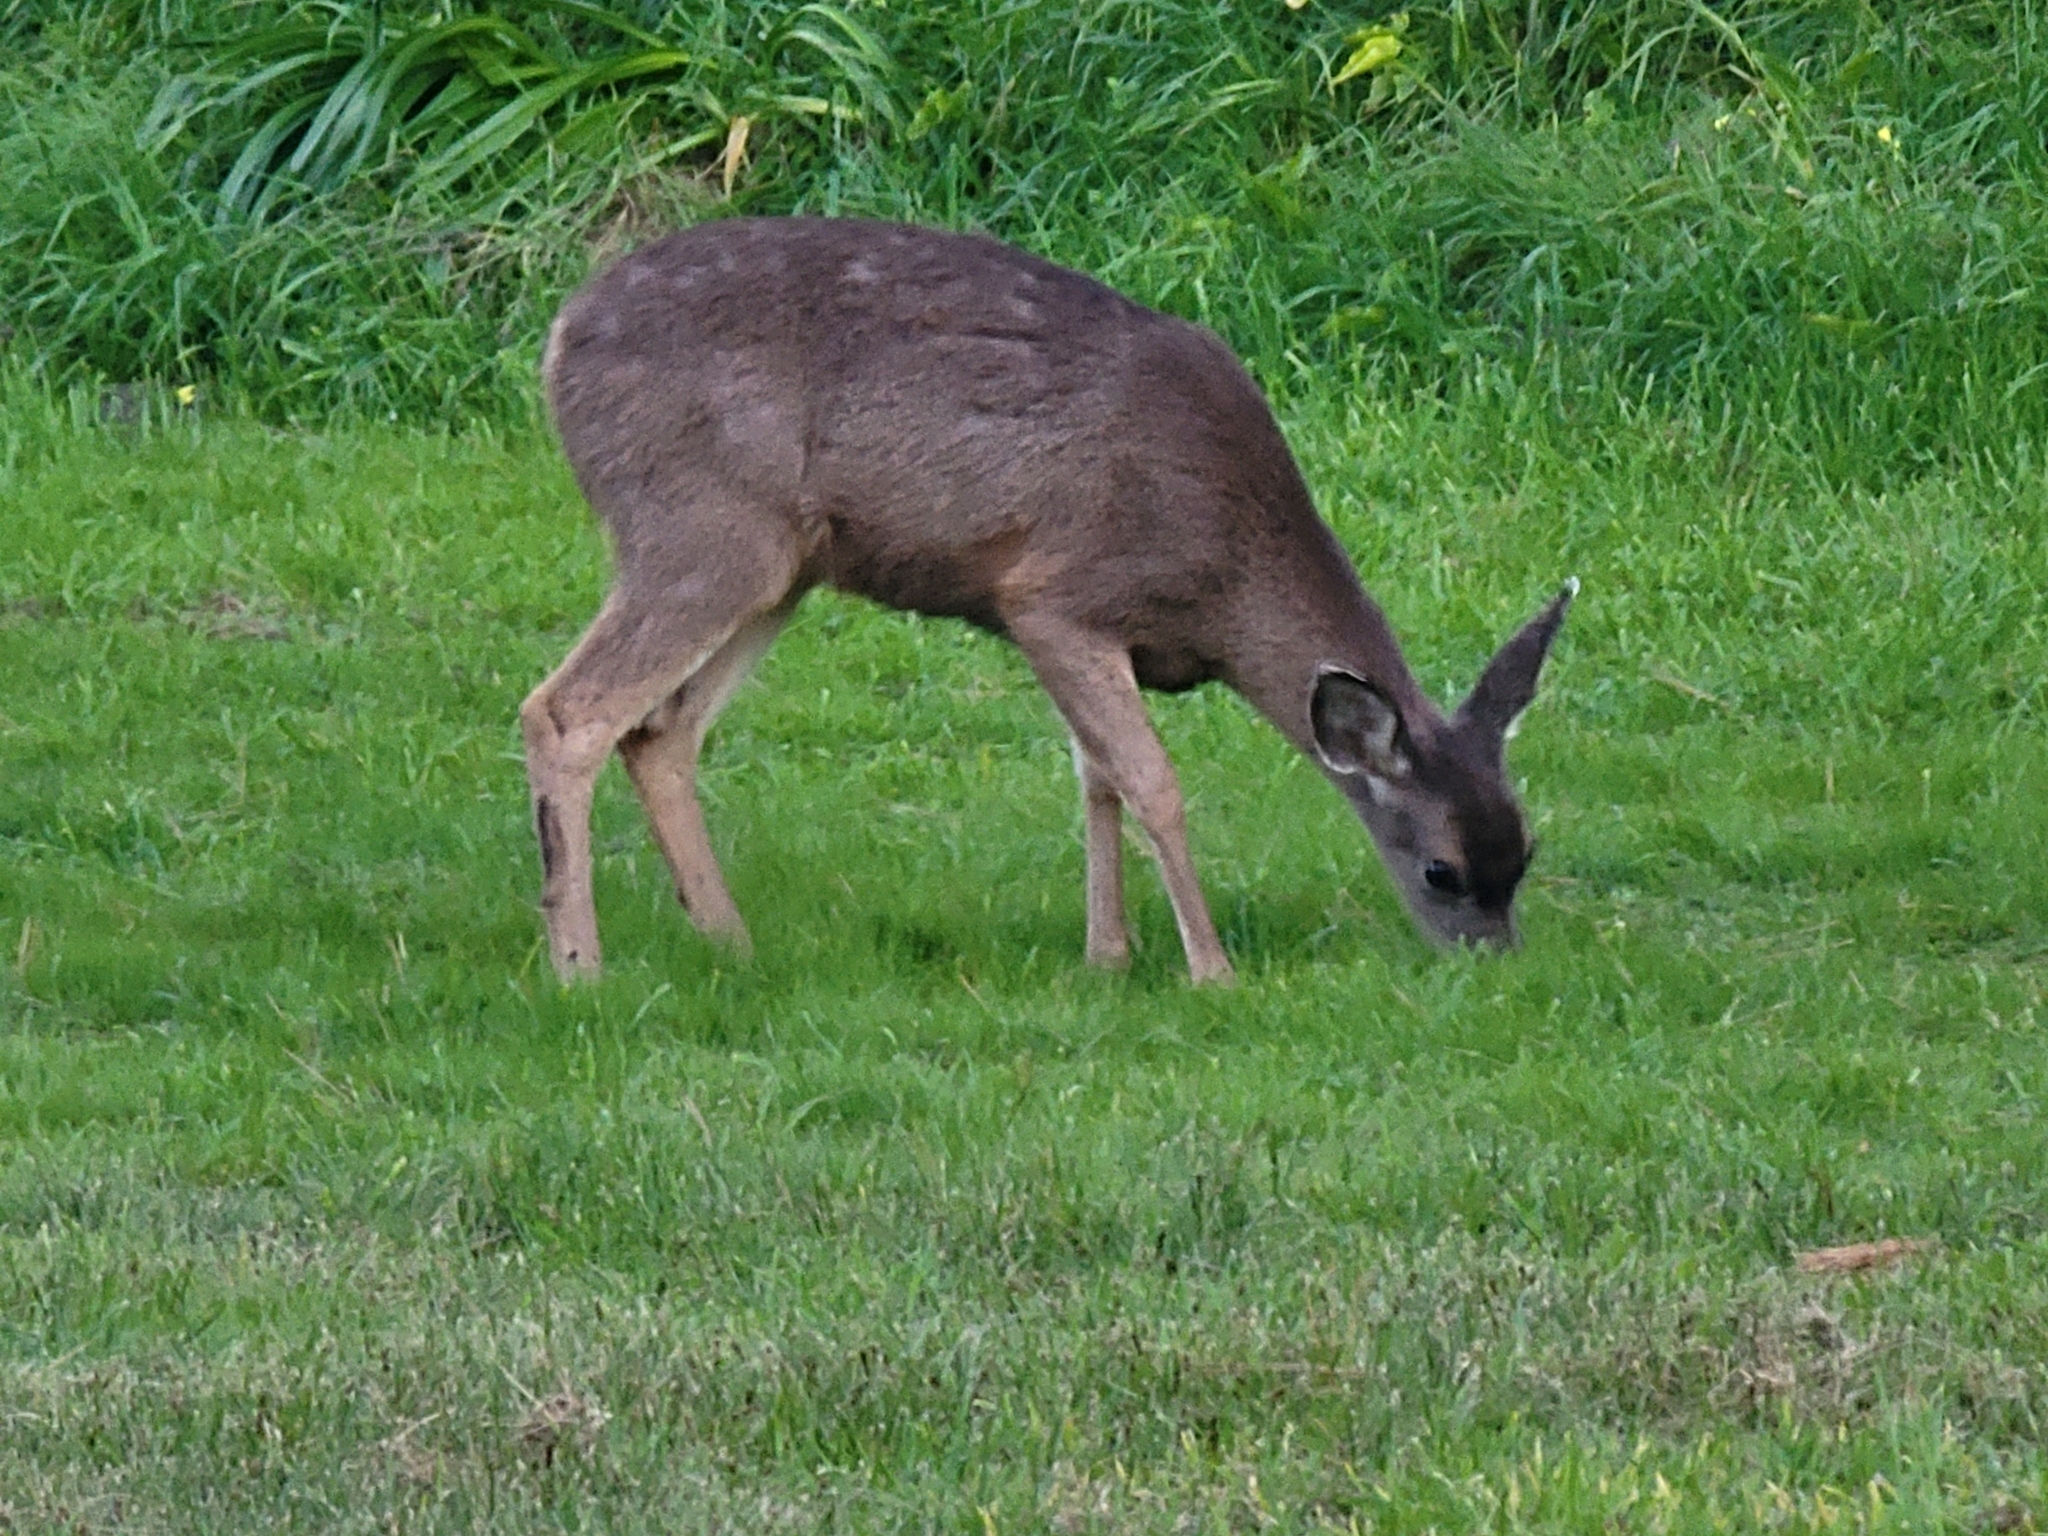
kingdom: Animalia
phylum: Chordata
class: Mammalia
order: Artiodactyla
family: Cervidae
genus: Odocoileus
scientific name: Odocoileus hemionus
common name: Mule deer
